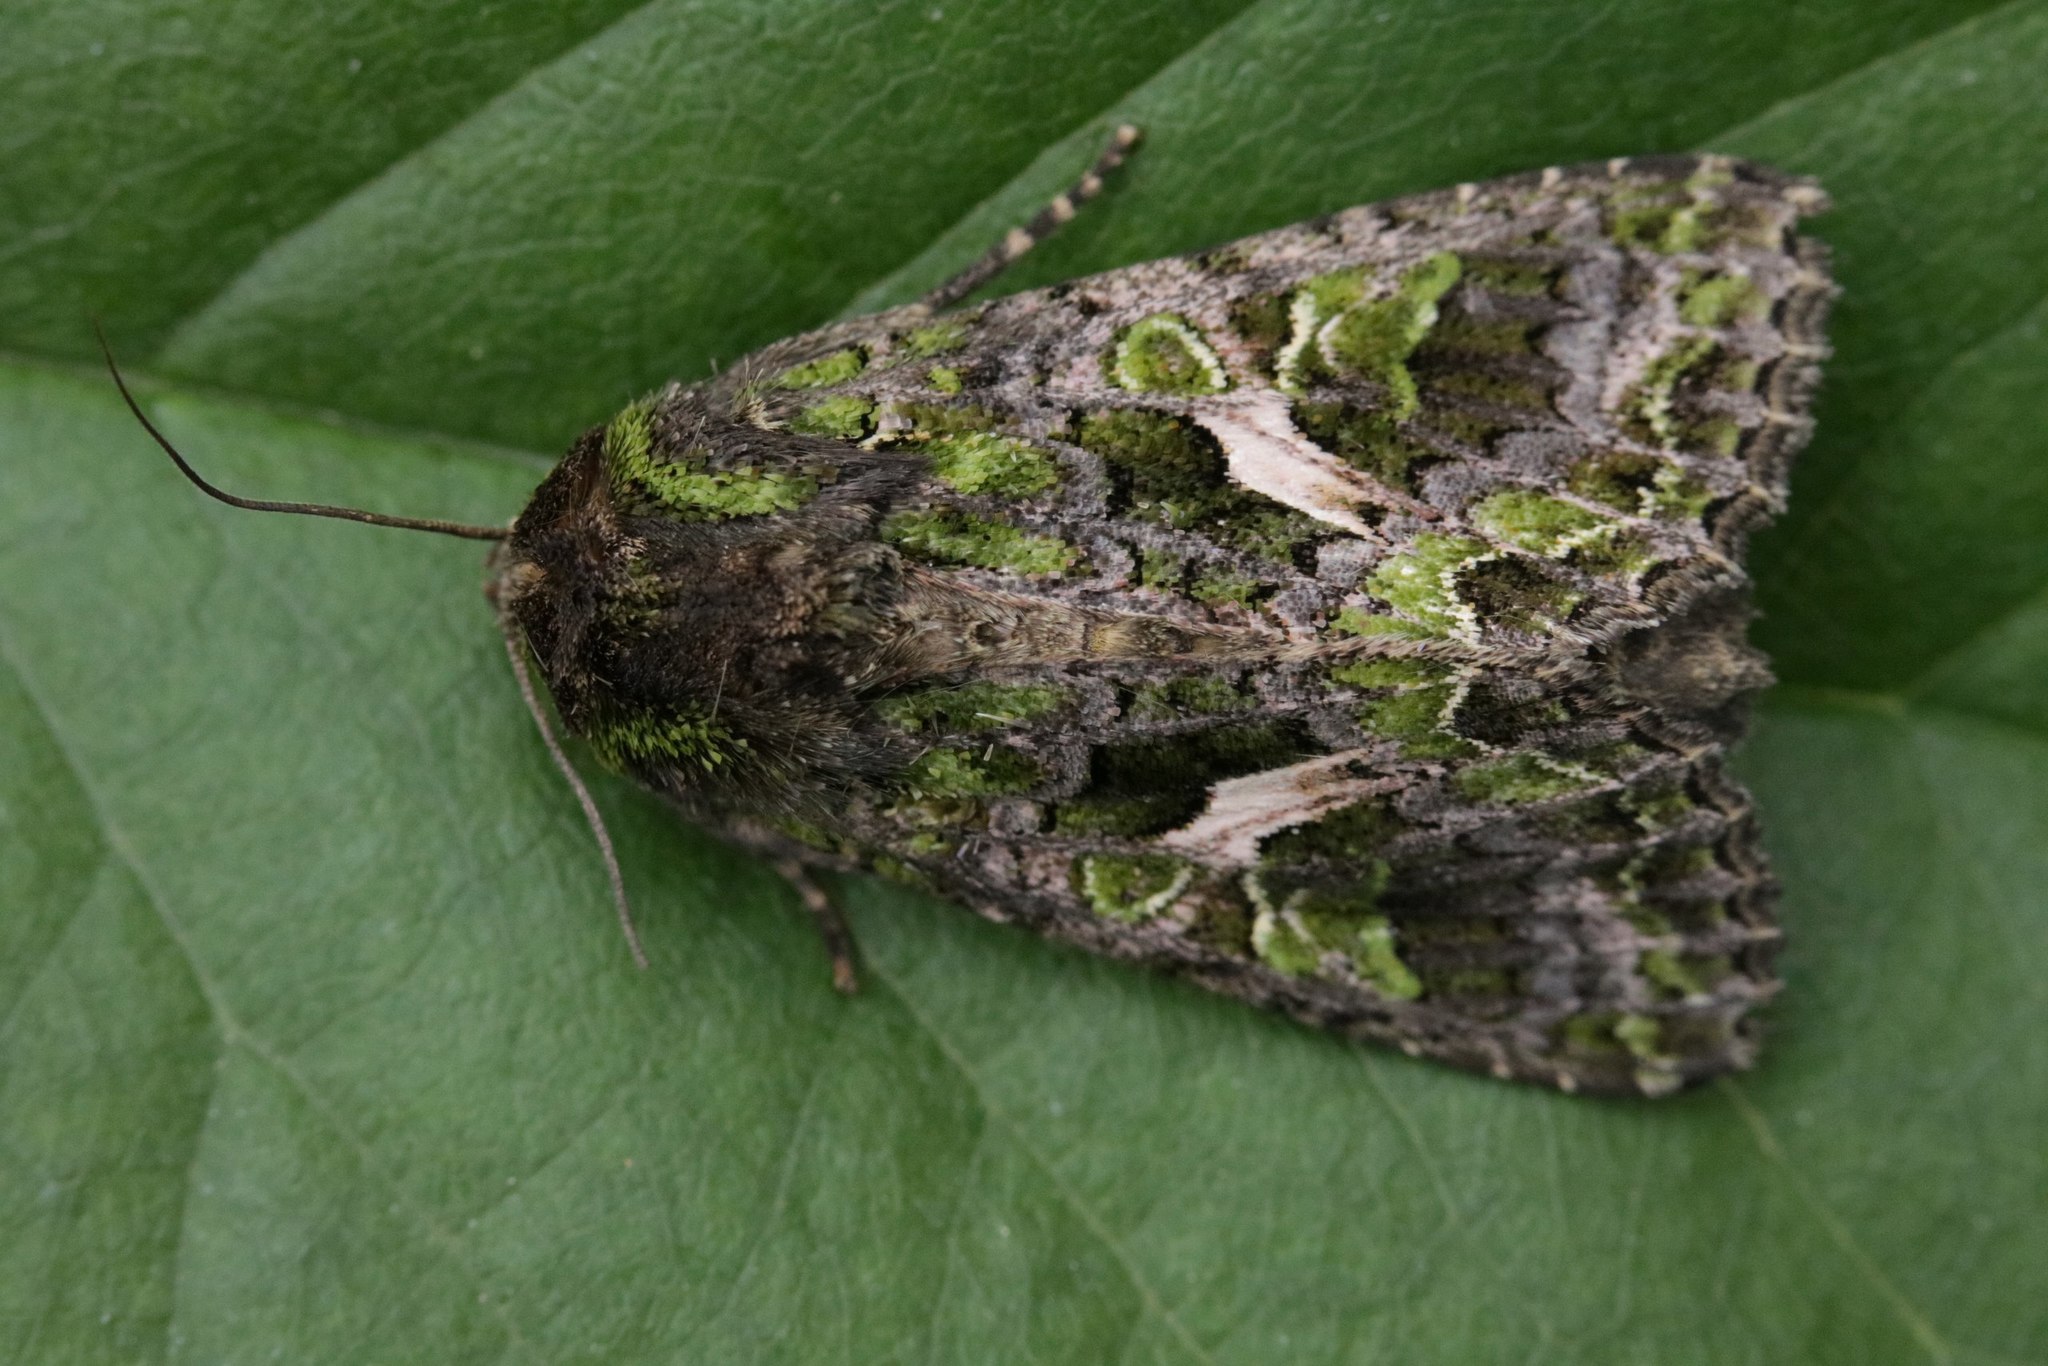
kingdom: Animalia
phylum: Arthropoda
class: Insecta
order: Lepidoptera
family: Noctuidae
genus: Trachea
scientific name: Trachea atriplicis
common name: Orache moth
